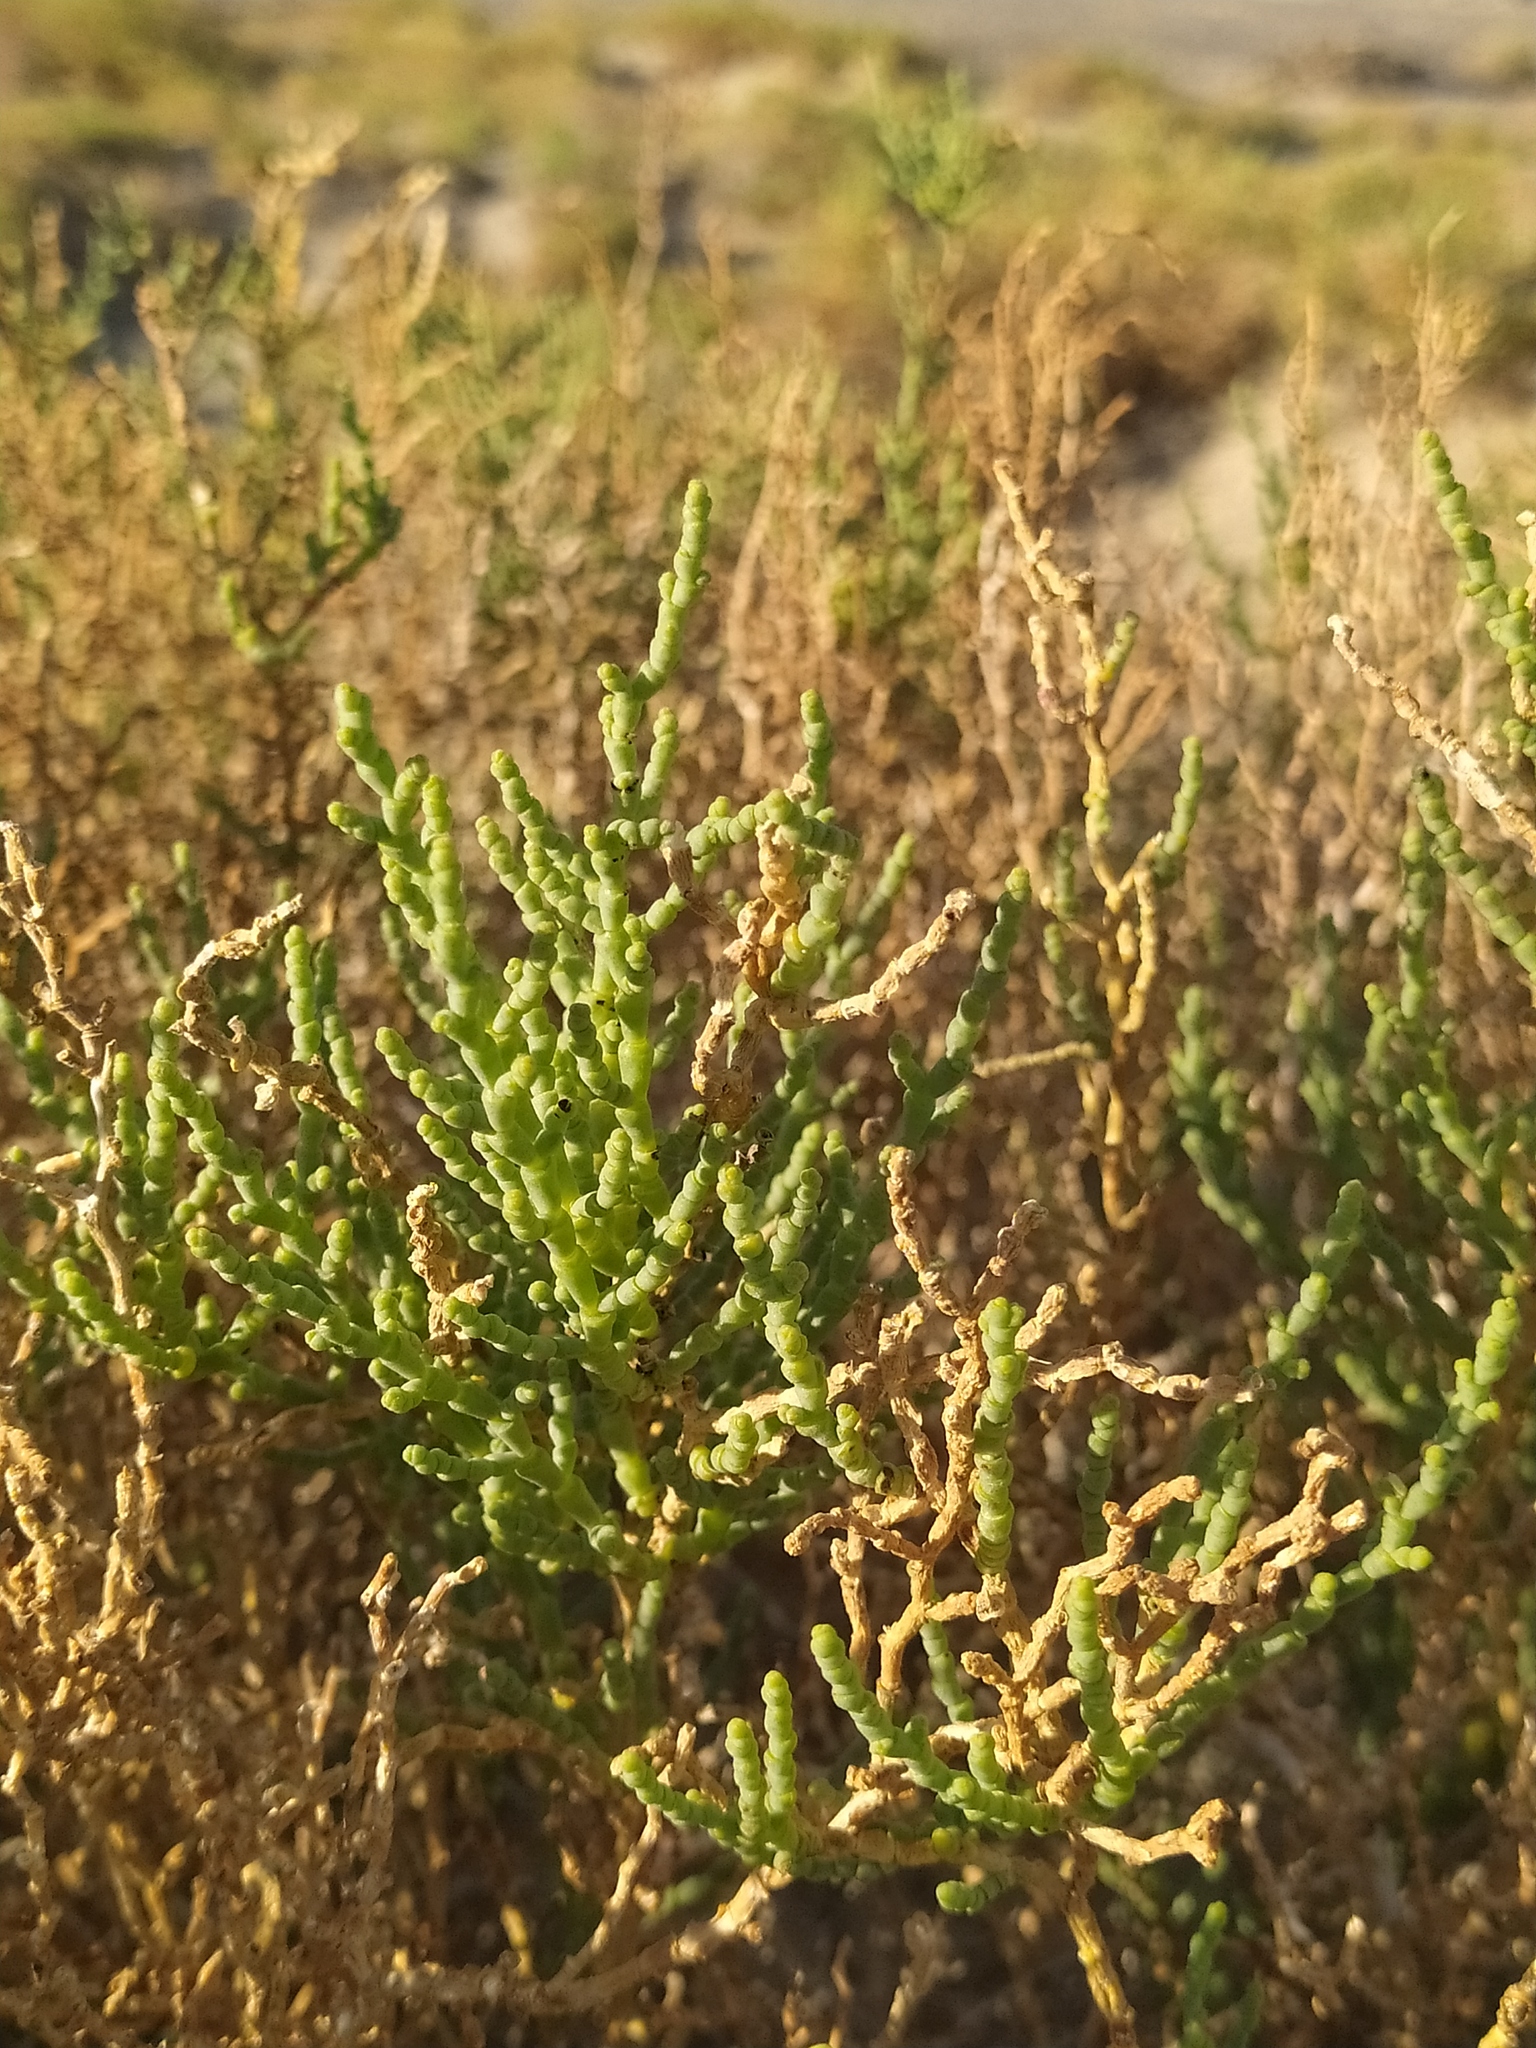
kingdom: Plantae
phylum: Tracheophyta
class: Magnoliopsida
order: Caryophyllales
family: Amaranthaceae
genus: Allenrolfea
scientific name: Allenrolfea occidentalis
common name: Iodine-bush
